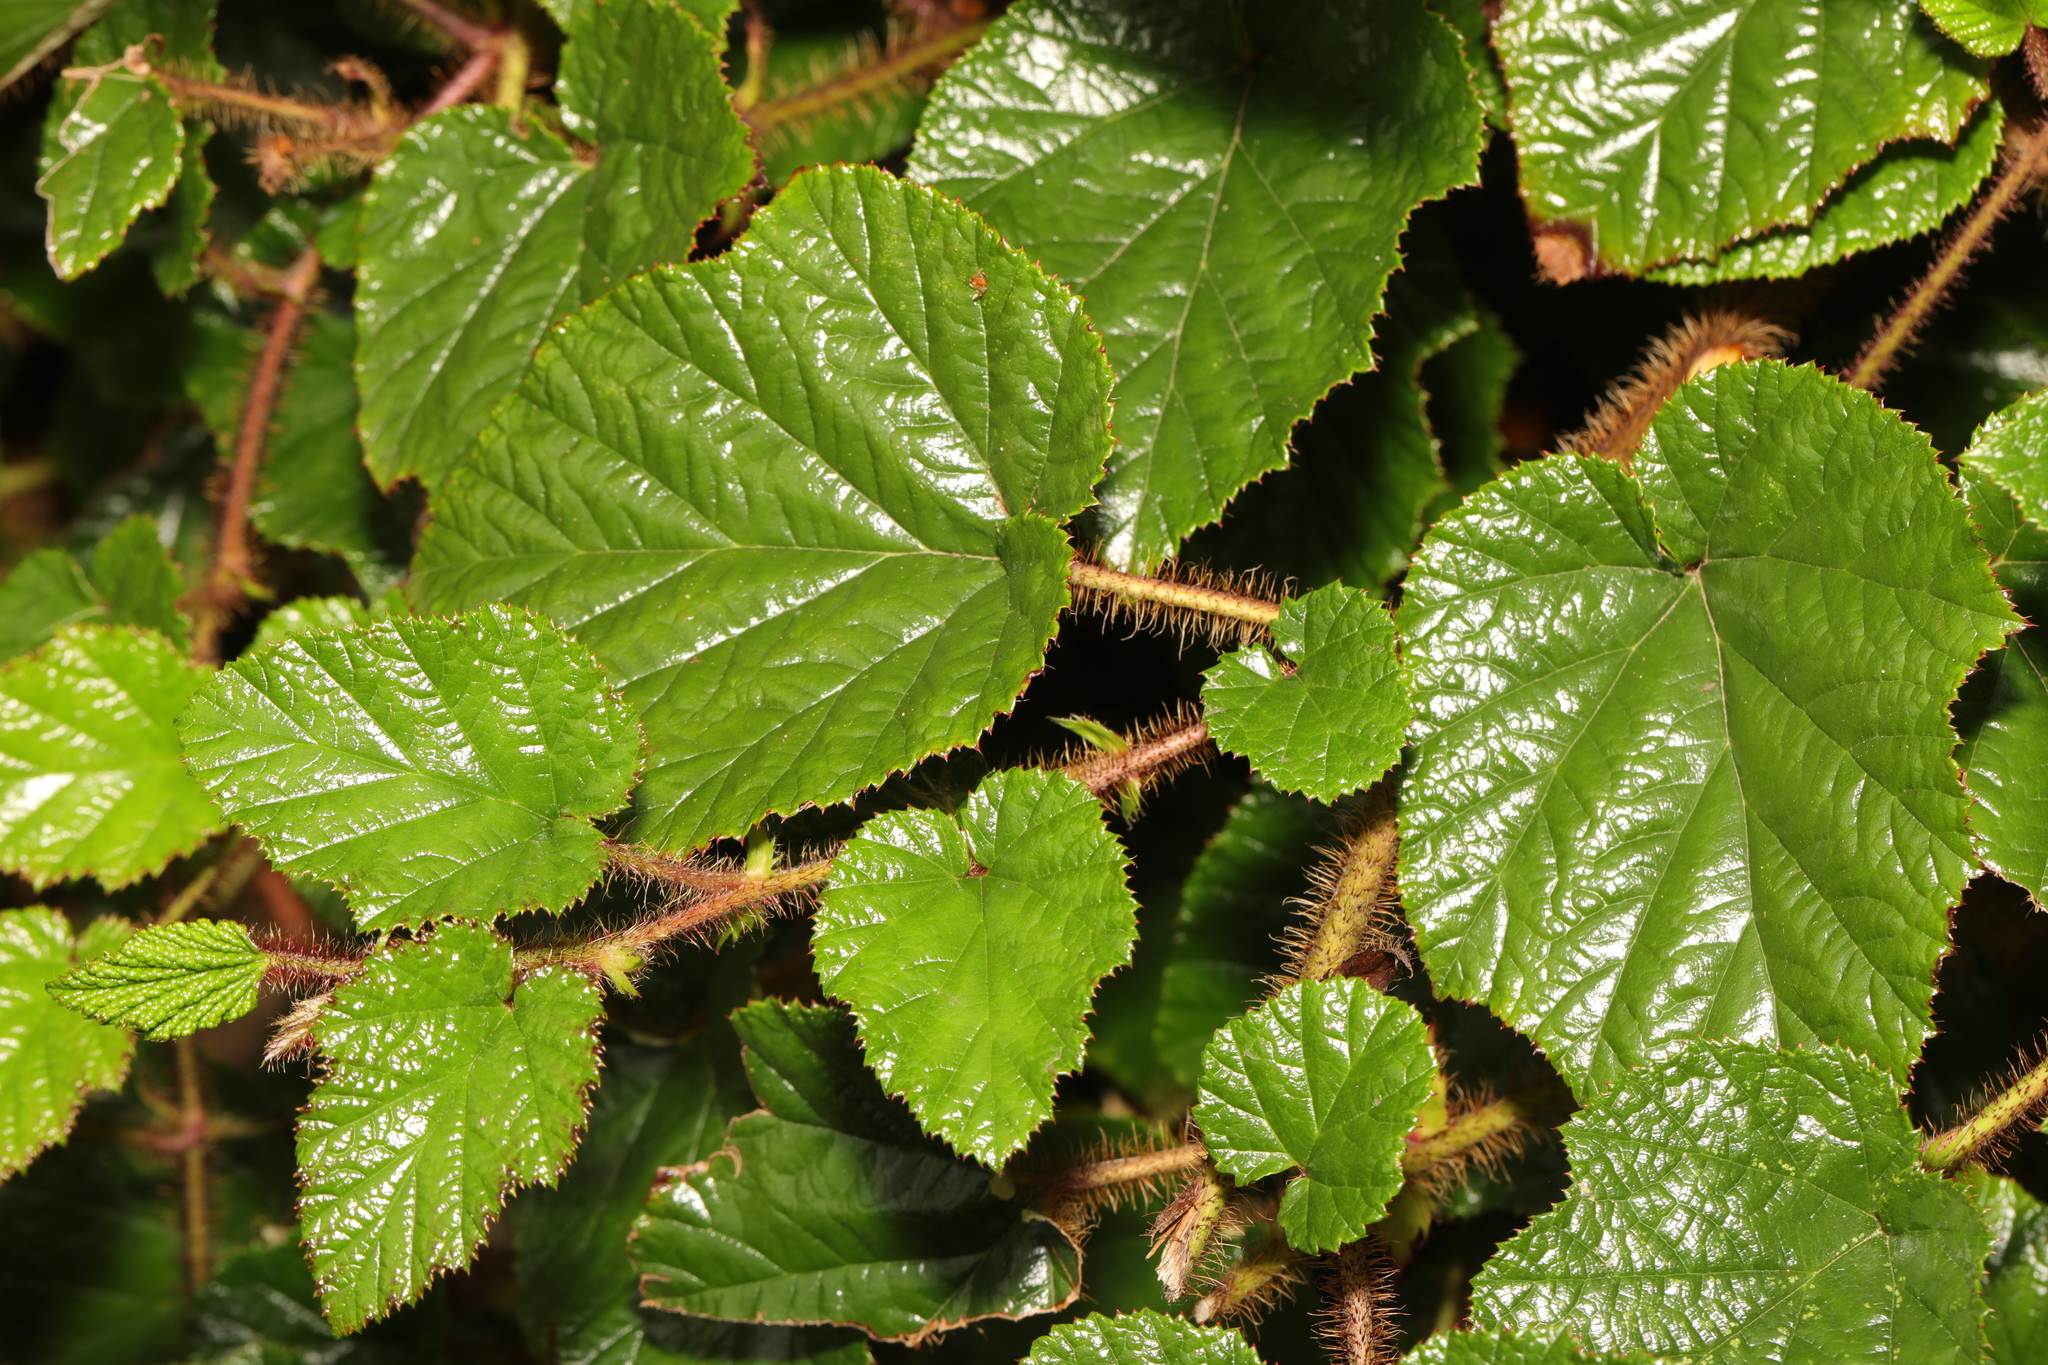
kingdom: Plantae
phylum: Tracheophyta
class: Magnoliopsida
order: Rosales
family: Rosaceae
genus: Rubus
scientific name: Rubus tricolor
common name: Chinese bramble
